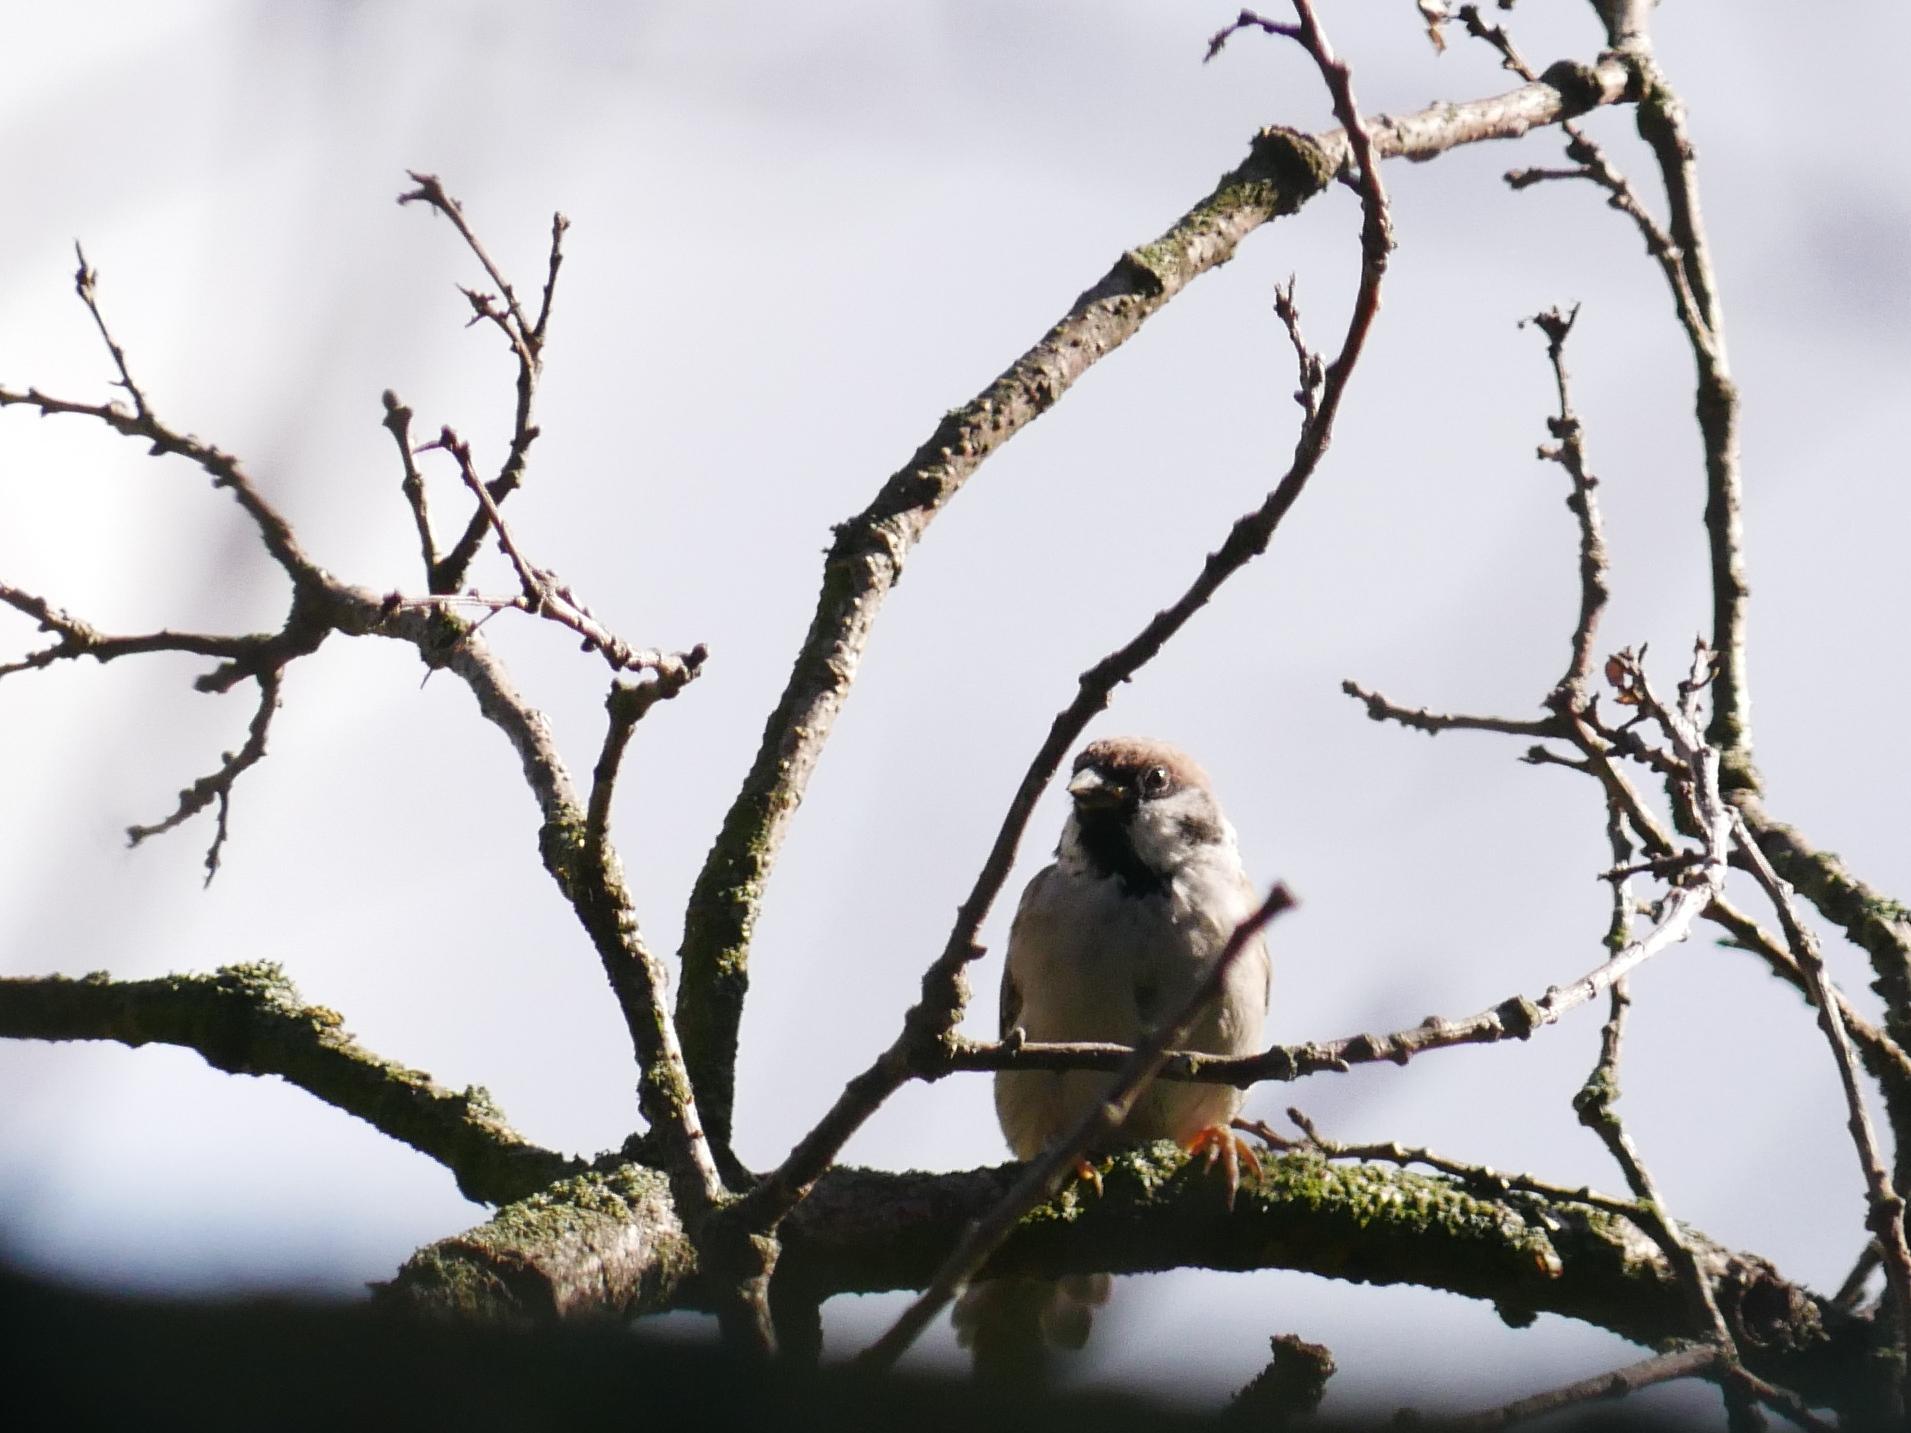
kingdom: Animalia
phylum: Chordata
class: Aves
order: Passeriformes
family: Passeridae
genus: Passer
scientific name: Passer montanus
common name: Eurasian tree sparrow
